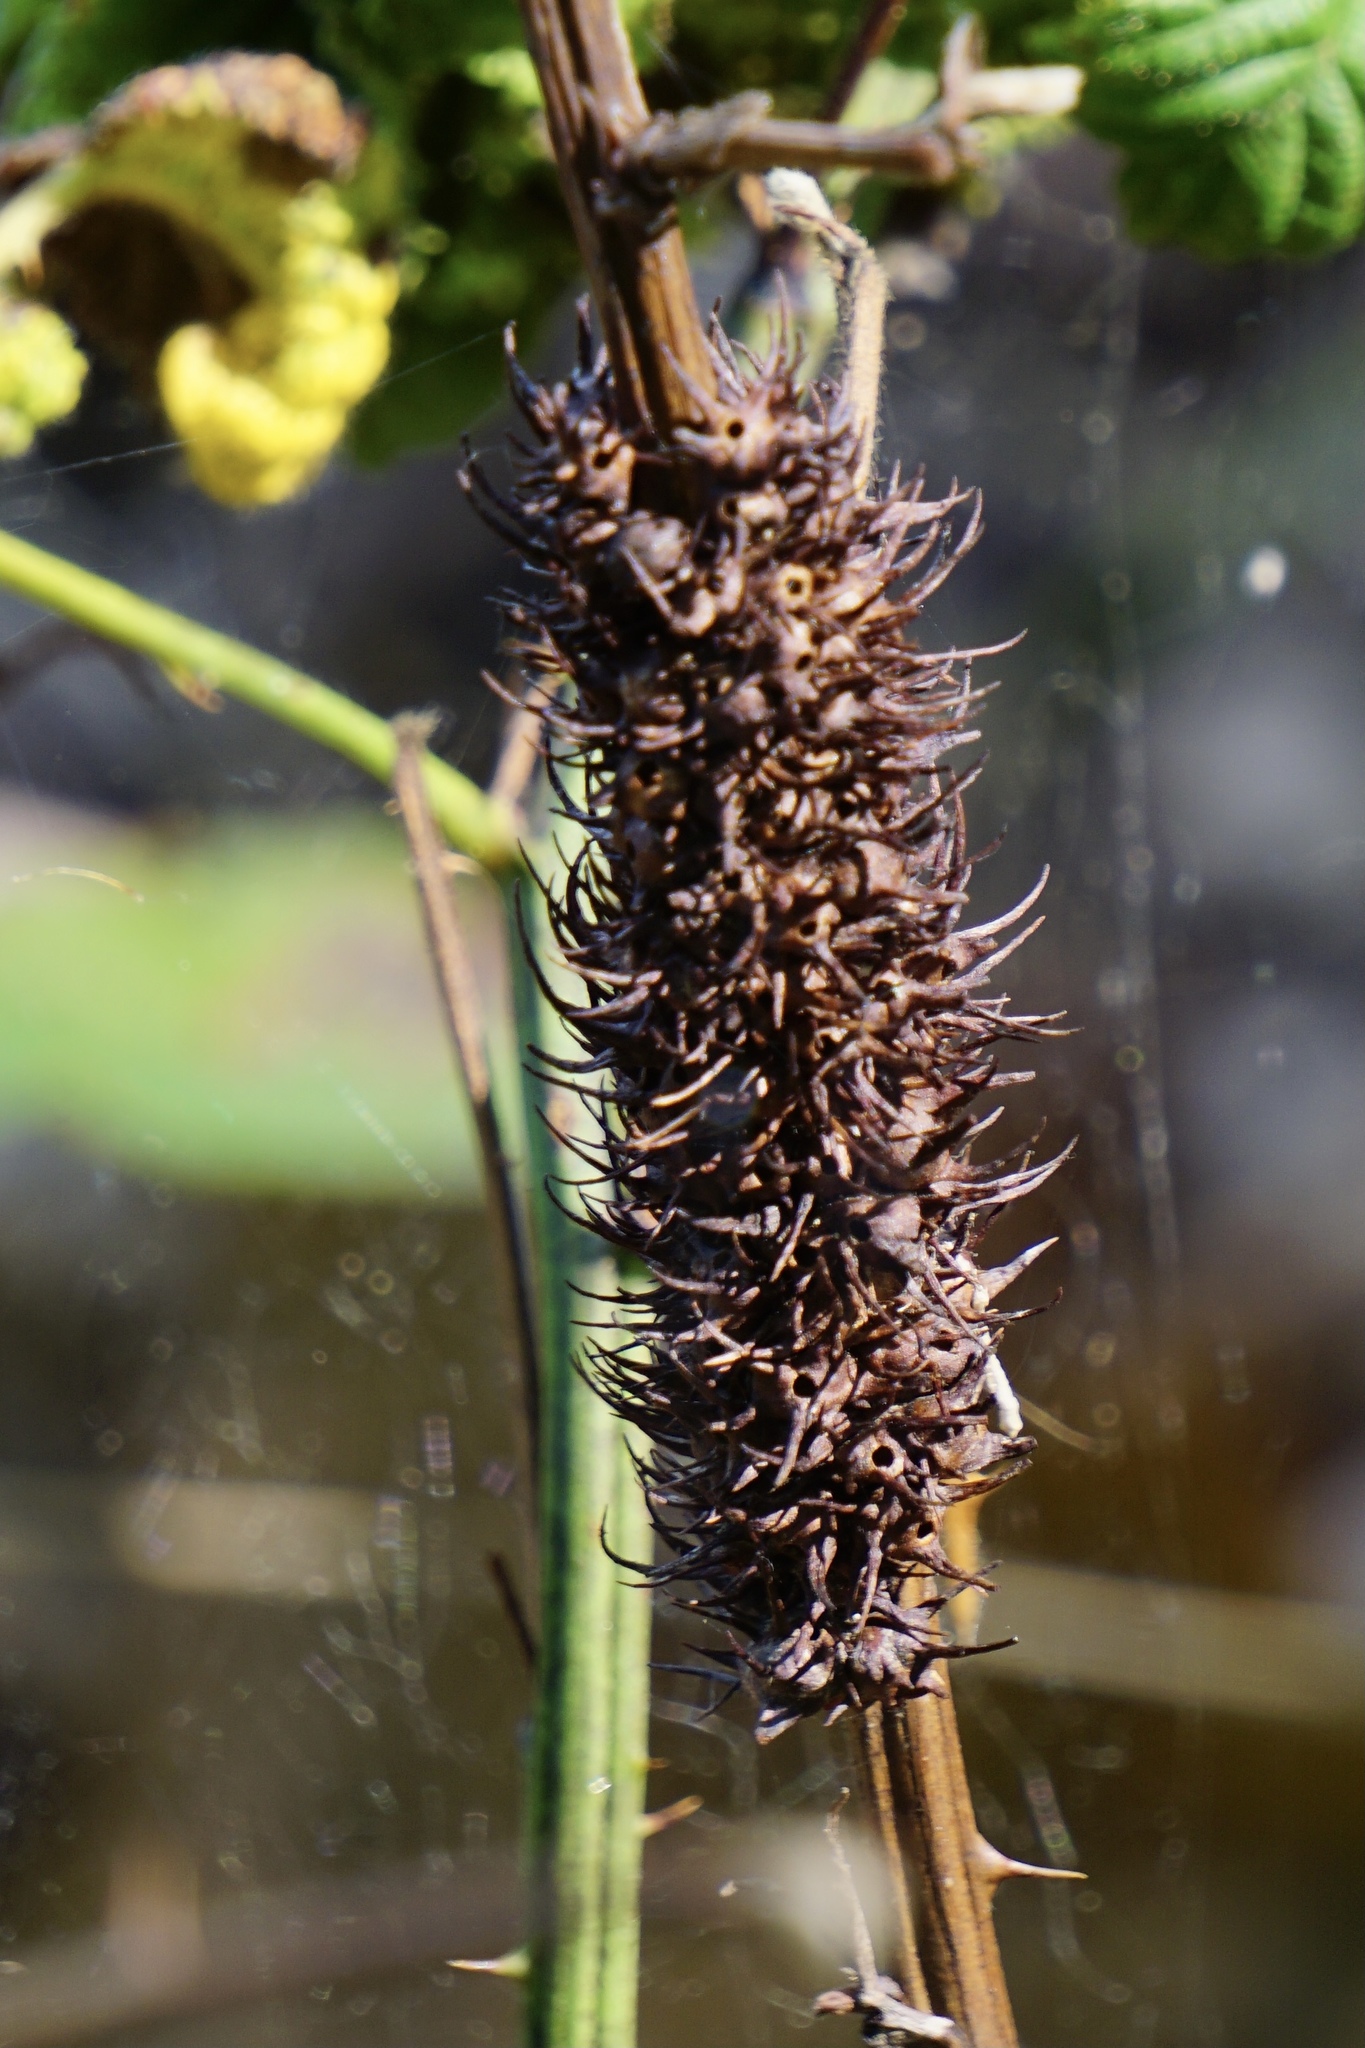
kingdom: Animalia
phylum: Arthropoda
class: Insecta
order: Hymenoptera
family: Cynipidae
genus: Diastrophus
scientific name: Diastrophus
